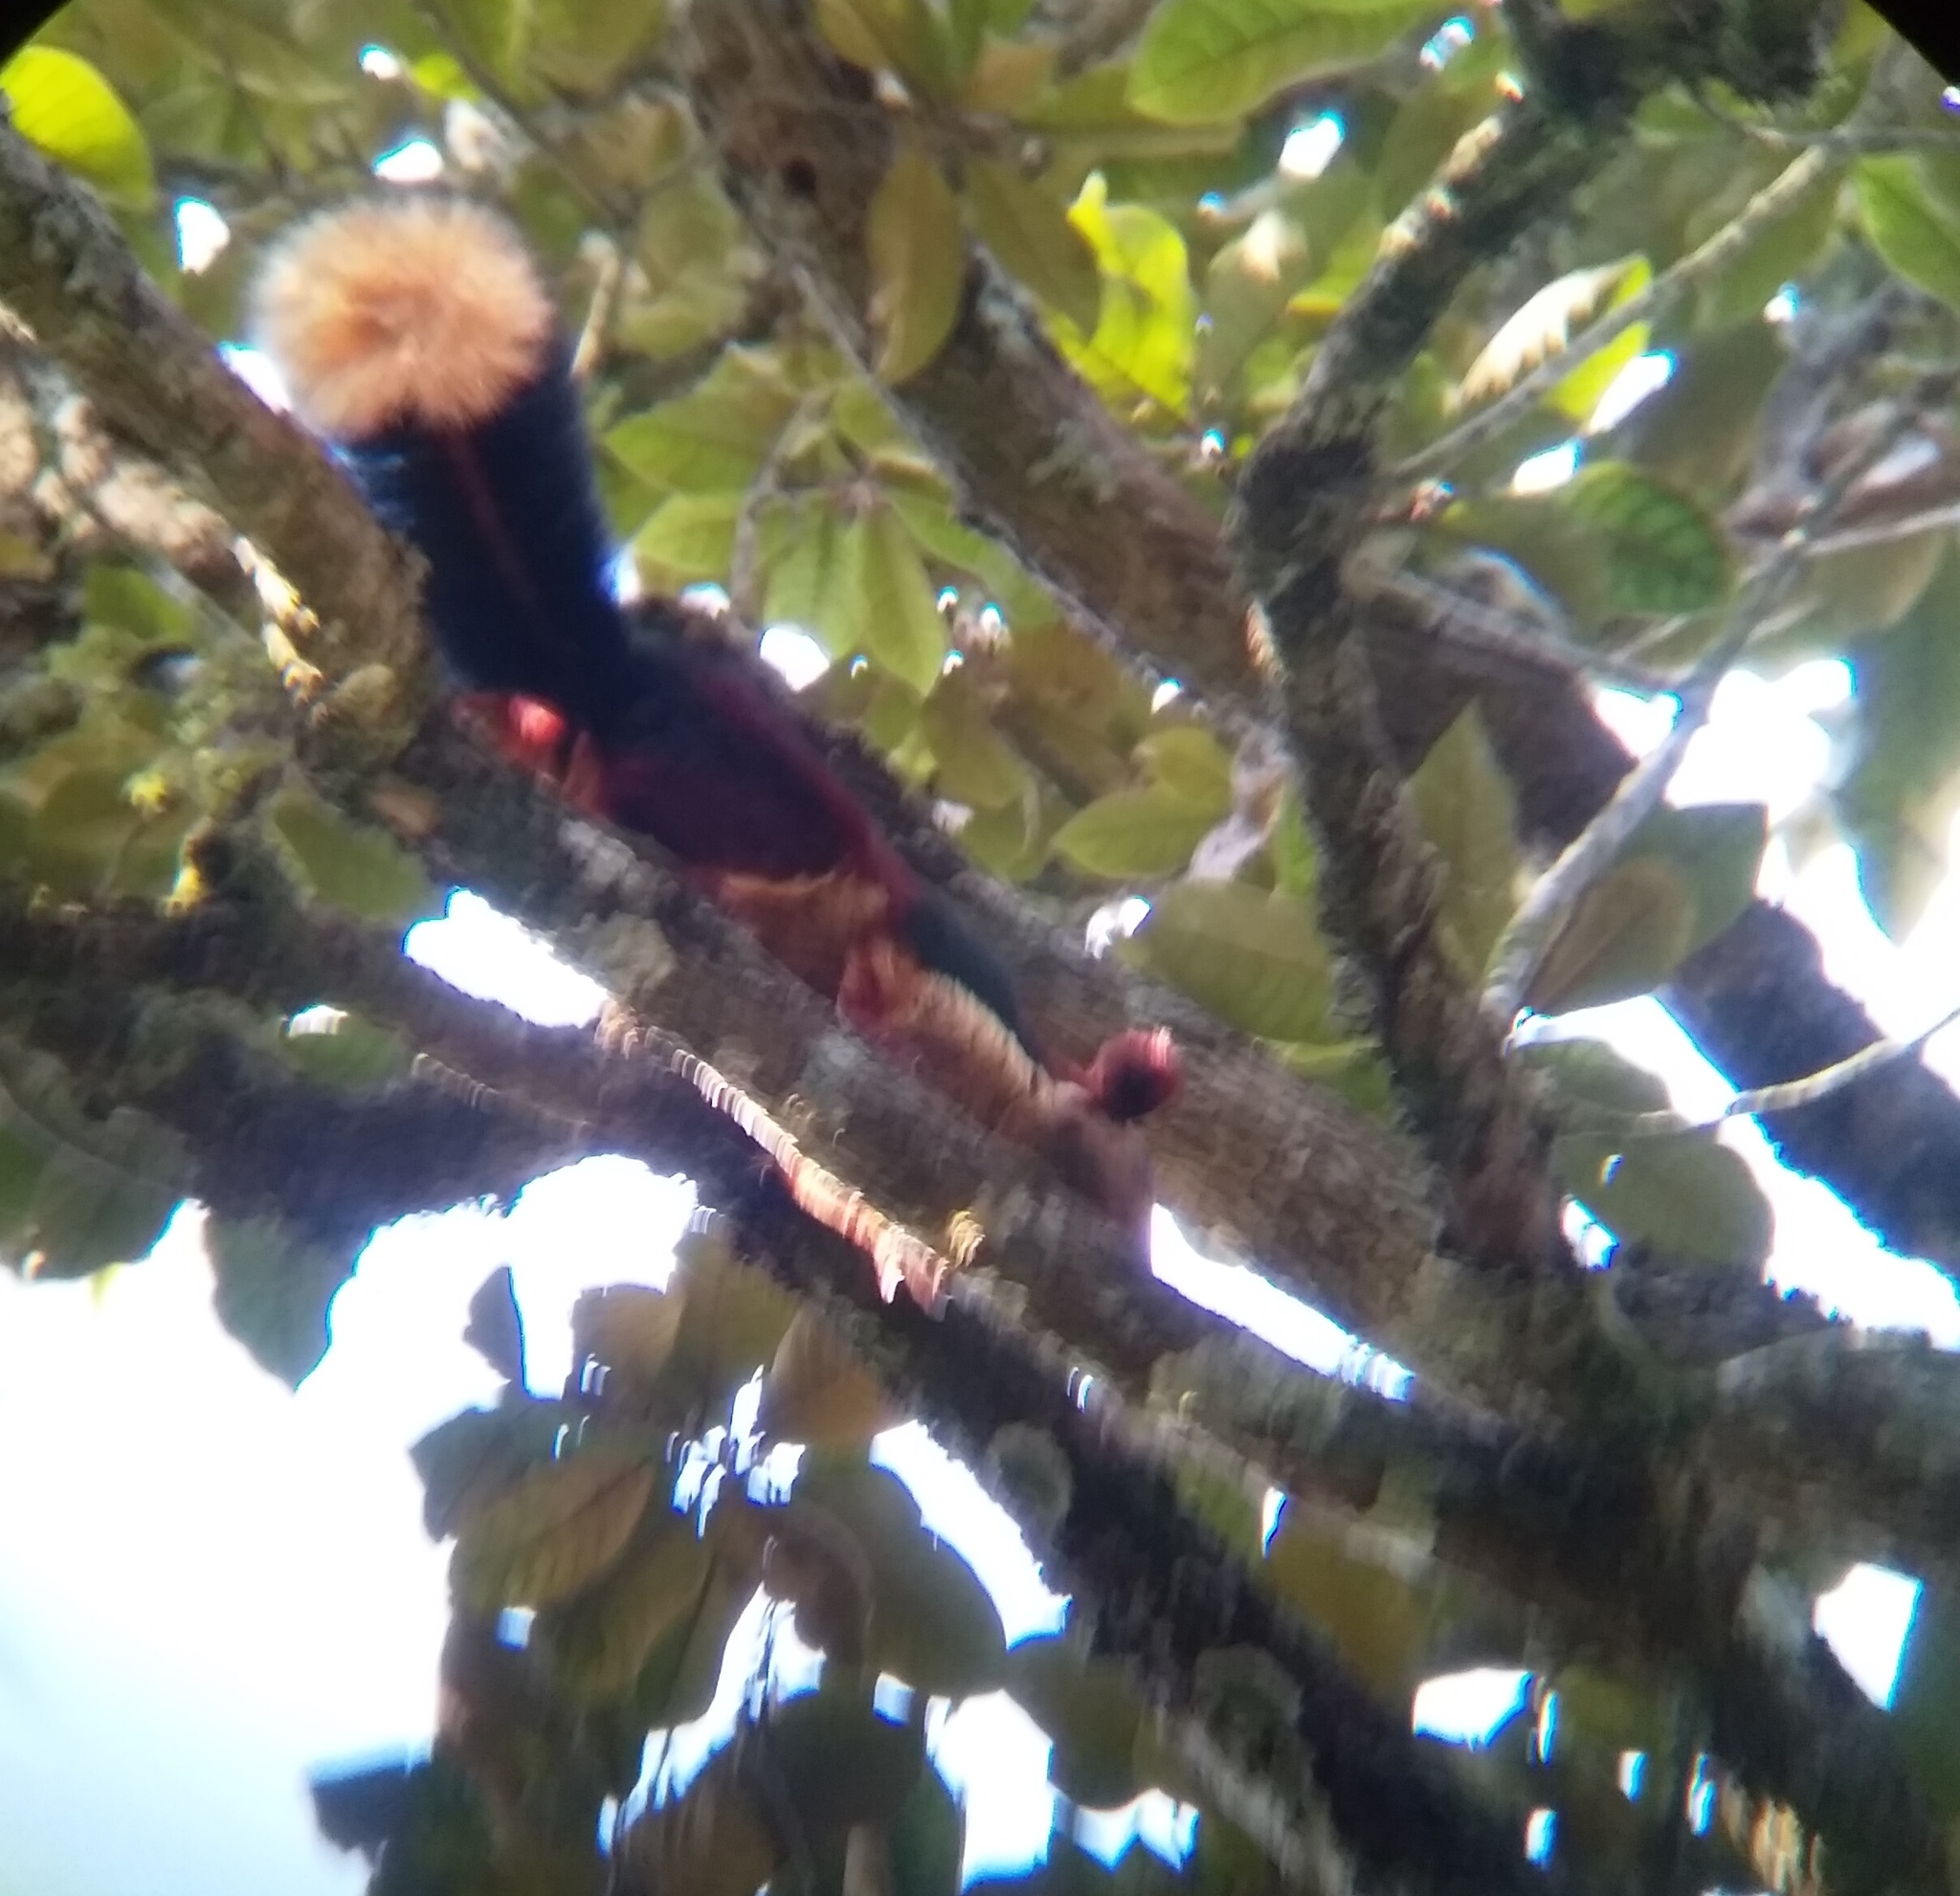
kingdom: Animalia
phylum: Chordata
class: Mammalia
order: Rodentia
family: Sciuridae
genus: Ratufa
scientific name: Ratufa indica
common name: Indian giant squirrel
